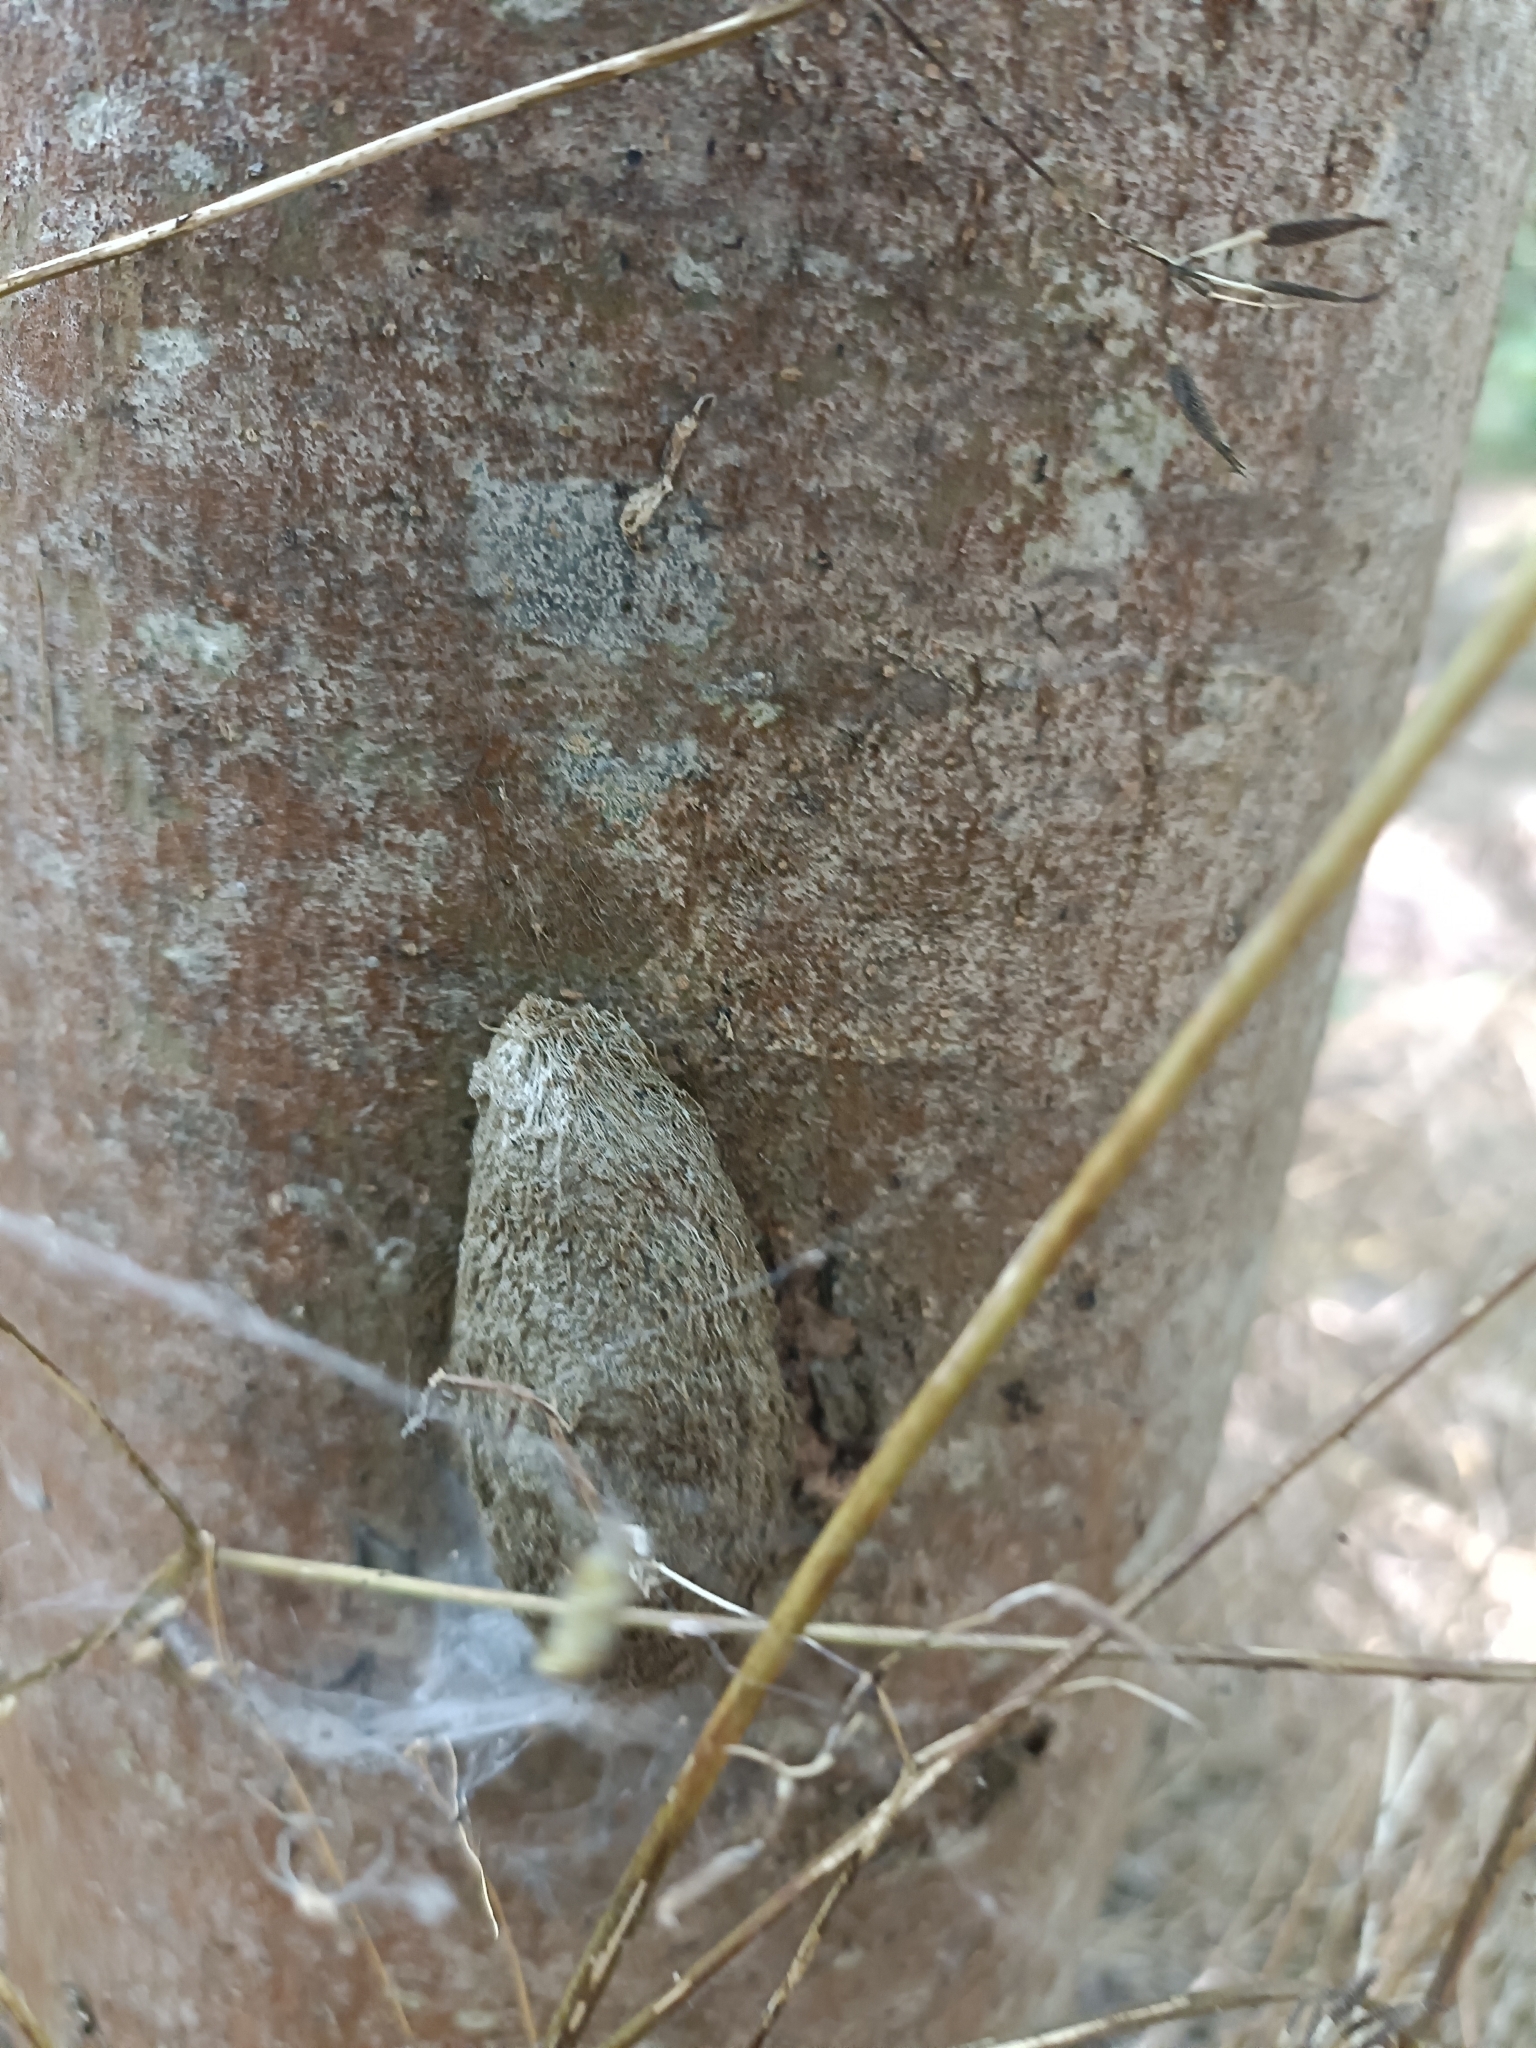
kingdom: Animalia
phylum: Arthropoda
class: Insecta
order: Lepidoptera
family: Saturniidae
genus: Saturnia
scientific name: Saturnia pyri
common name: Great peacock moth
